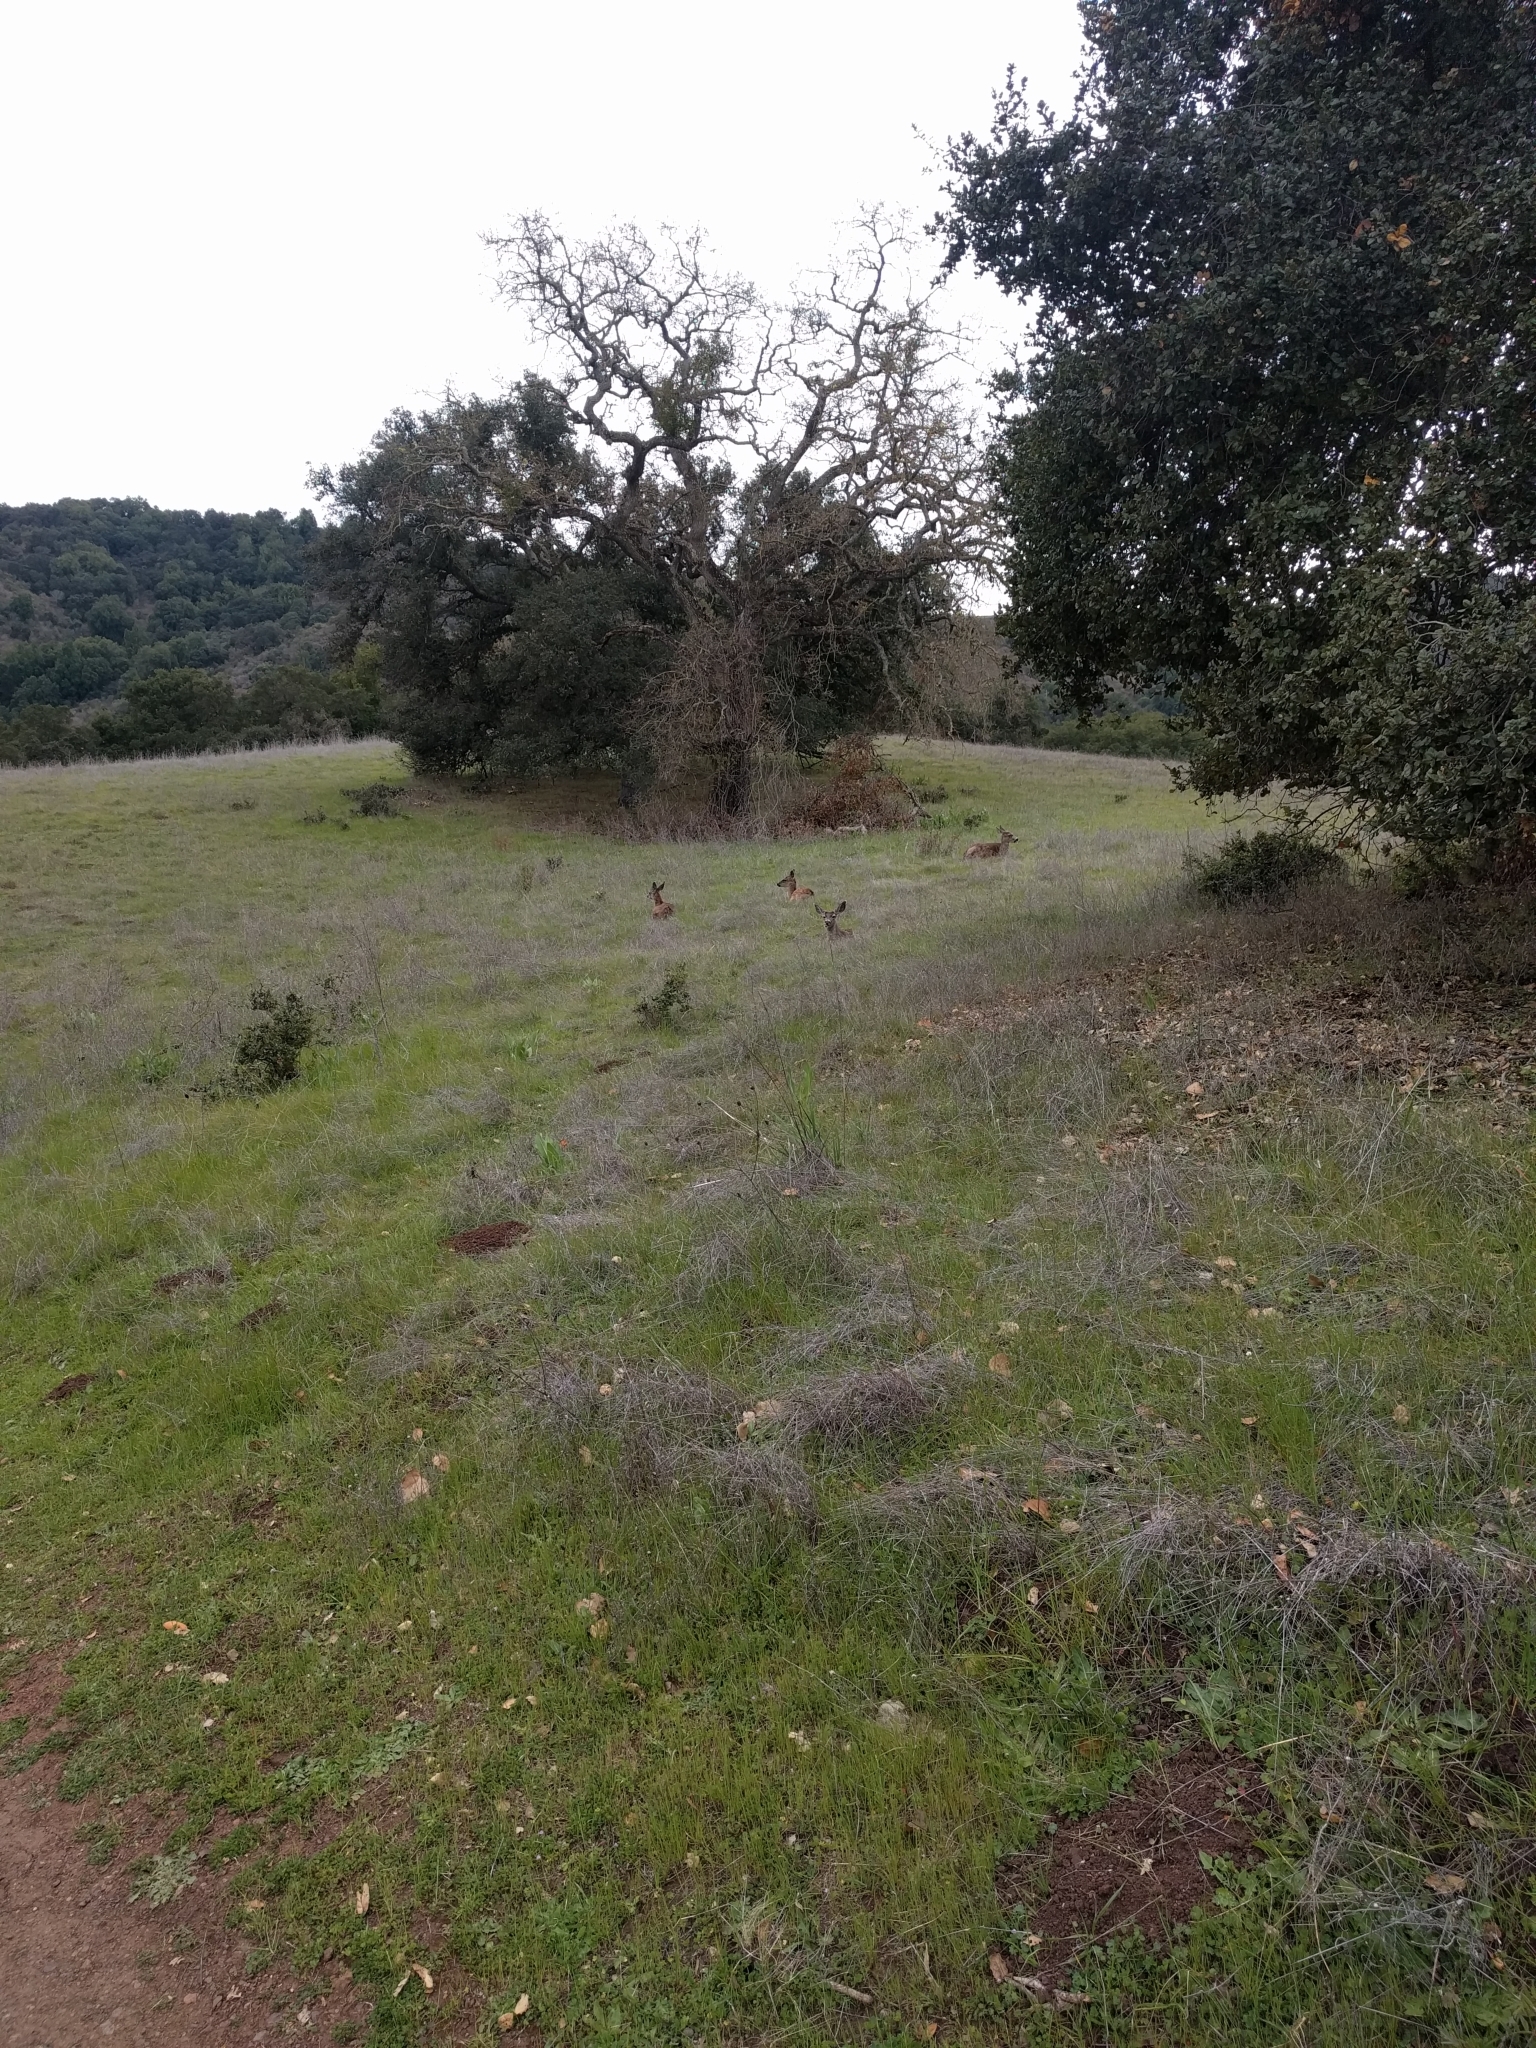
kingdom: Animalia
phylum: Chordata
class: Mammalia
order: Artiodactyla
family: Cervidae
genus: Odocoileus
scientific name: Odocoileus hemionus
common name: Mule deer
